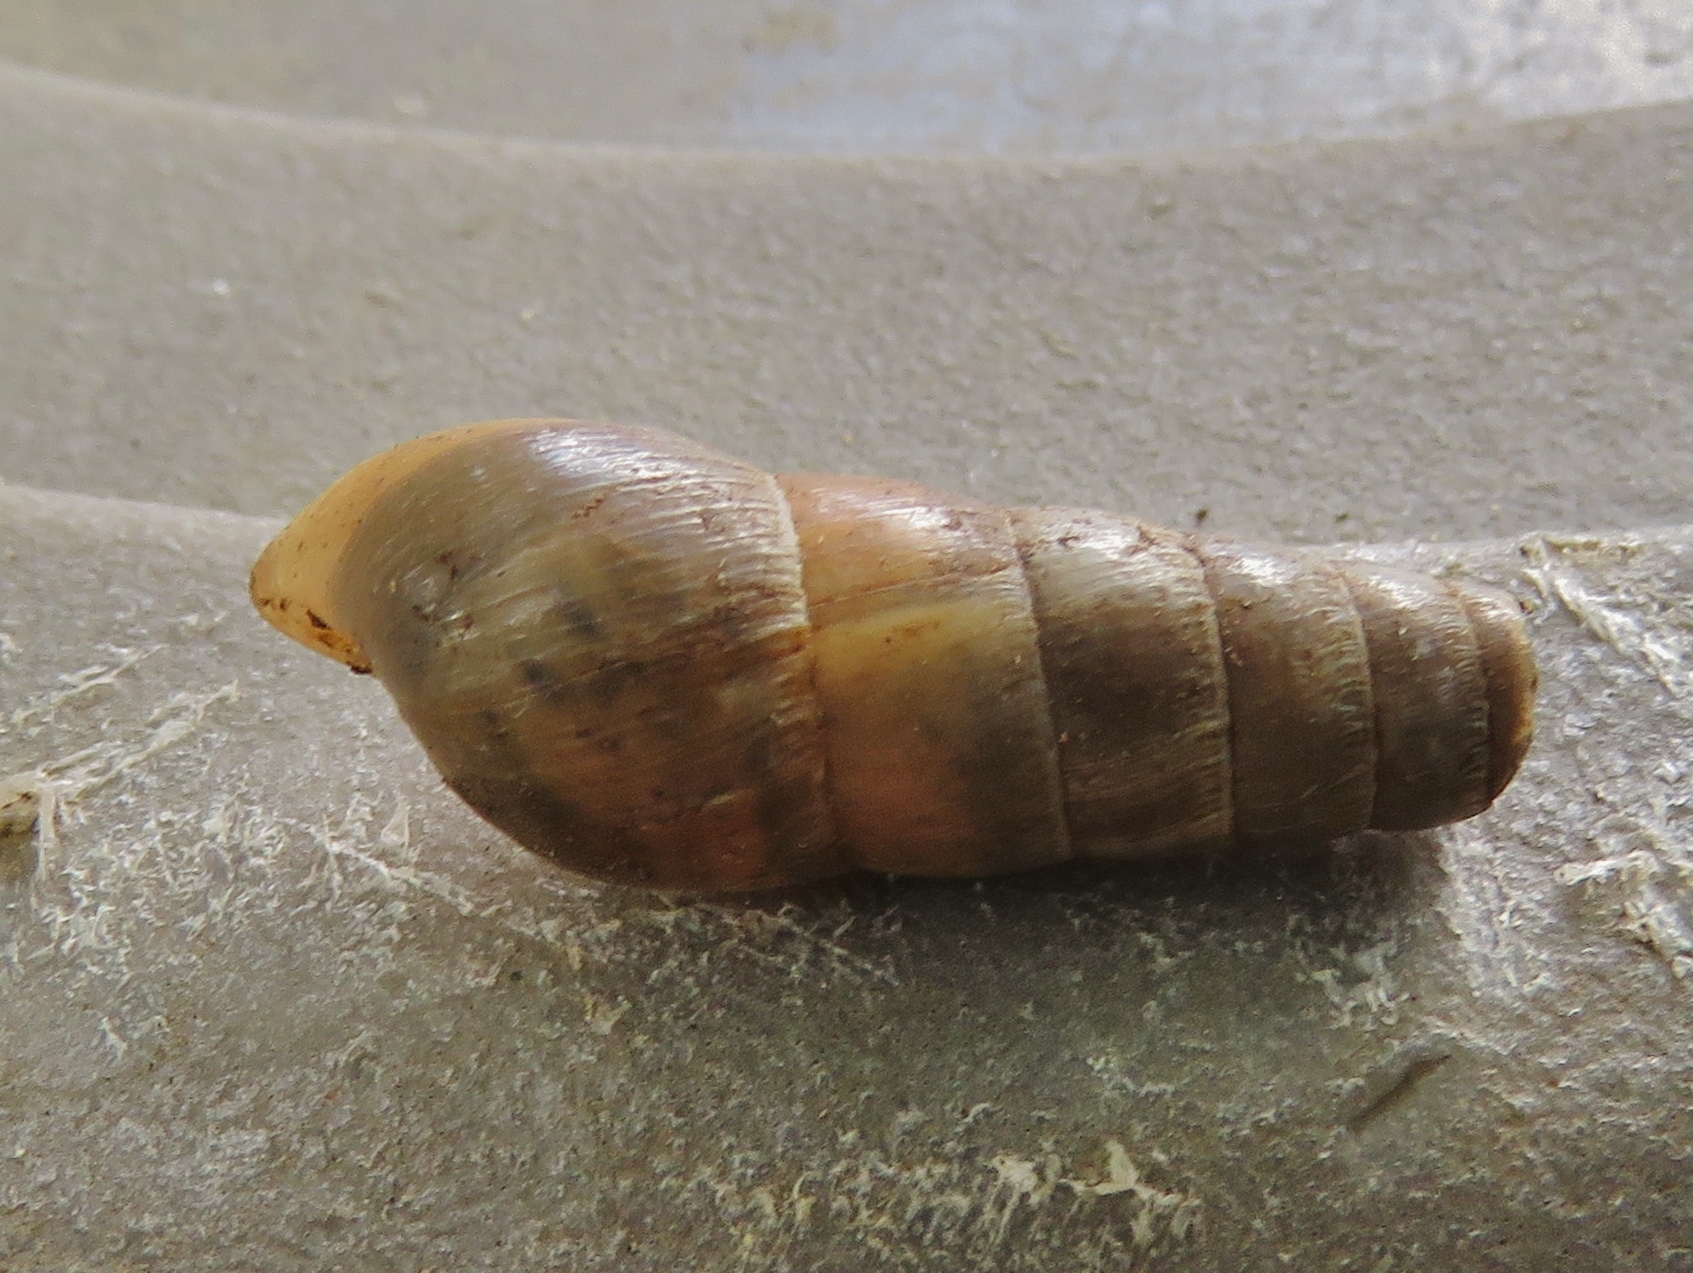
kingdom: Animalia
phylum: Mollusca
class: Gastropoda
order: Stylommatophora
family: Achatinidae
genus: Rumina
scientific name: Rumina decollata
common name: Decollate snail
